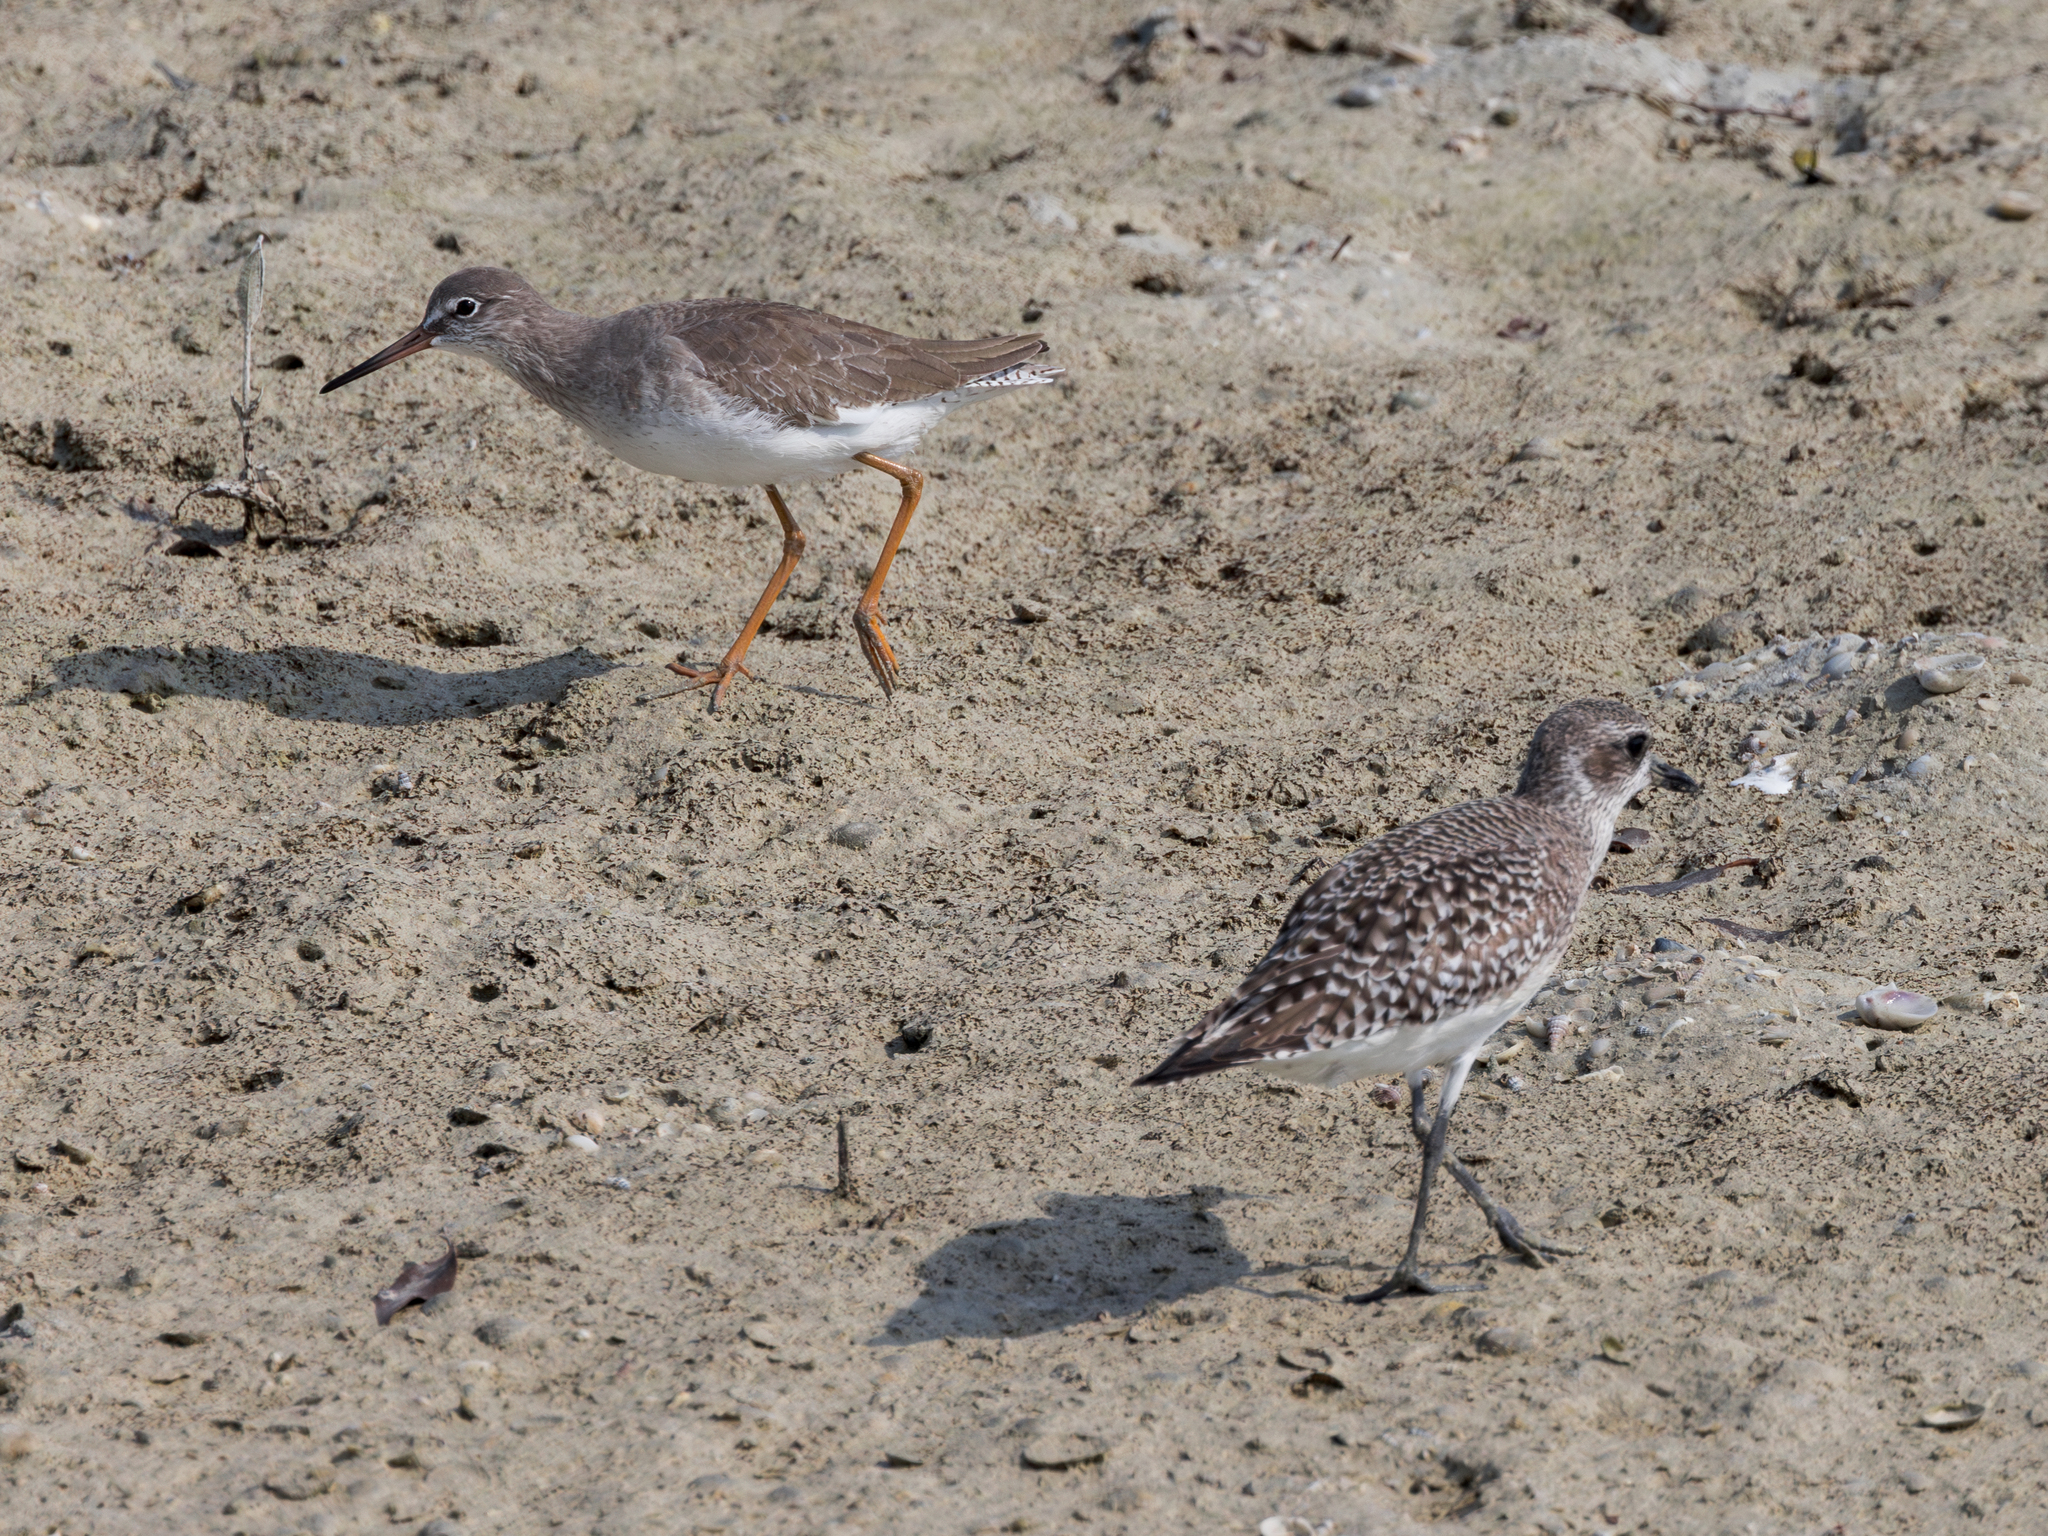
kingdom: Animalia
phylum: Chordata
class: Aves
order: Charadriiformes
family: Charadriidae
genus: Pluvialis
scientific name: Pluvialis squatarola
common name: Grey plover
